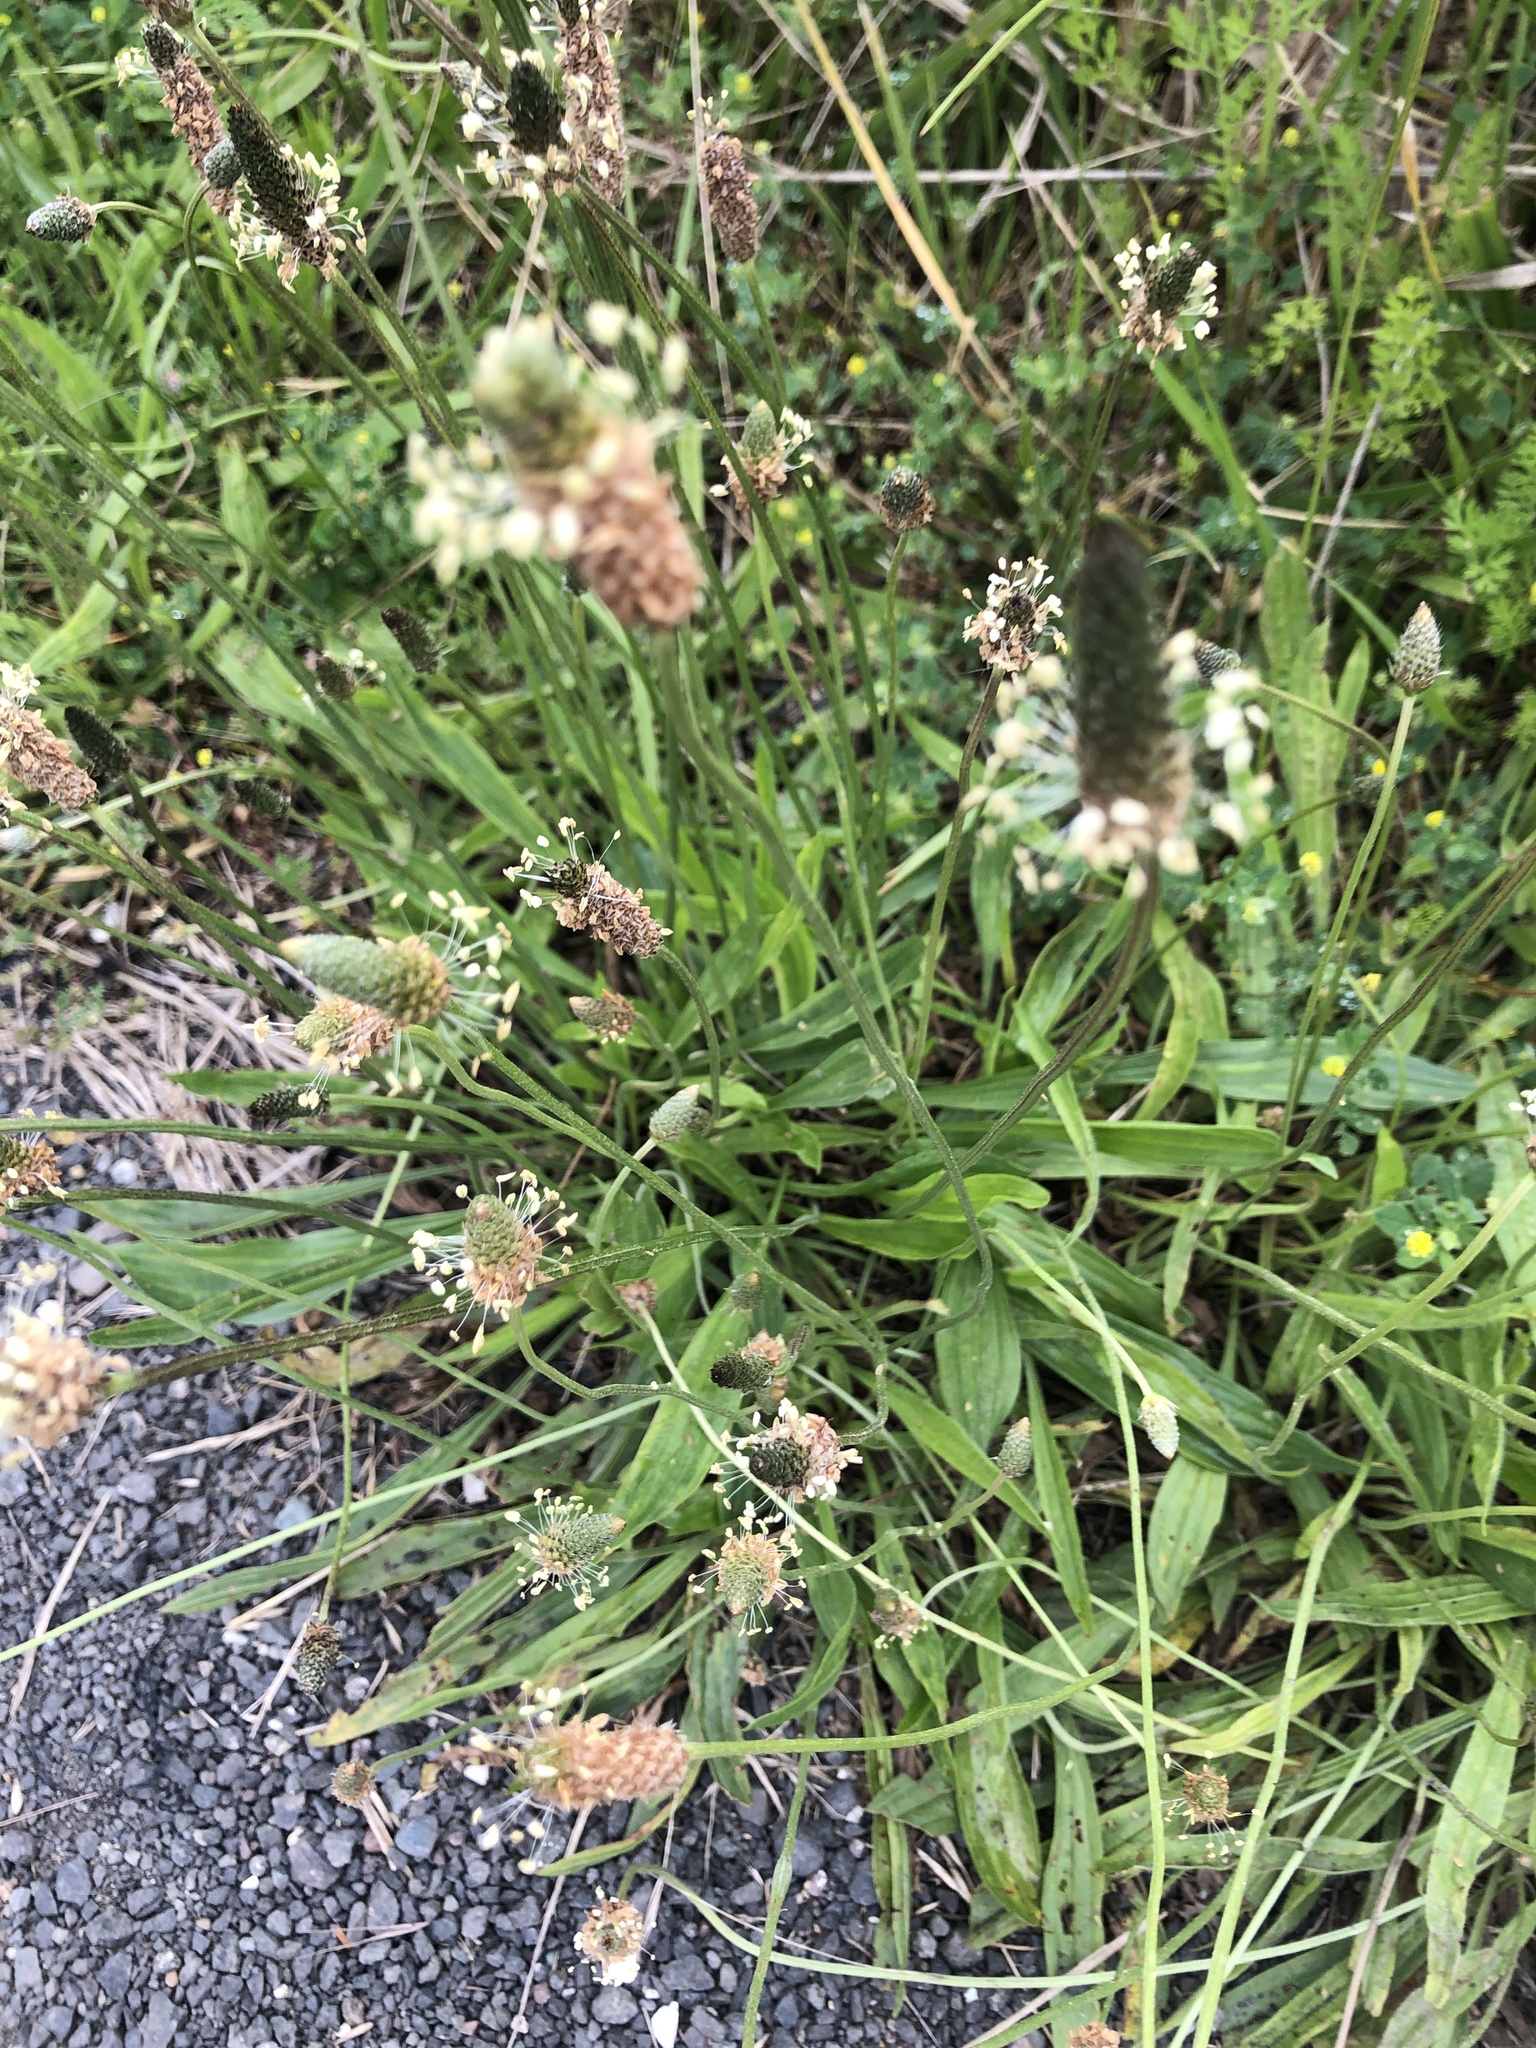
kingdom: Plantae
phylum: Tracheophyta
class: Magnoliopsida
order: Lamiales
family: Plantaginaceae
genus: Plantago
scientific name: Plantago lanceolata
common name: Ribwort plantain
